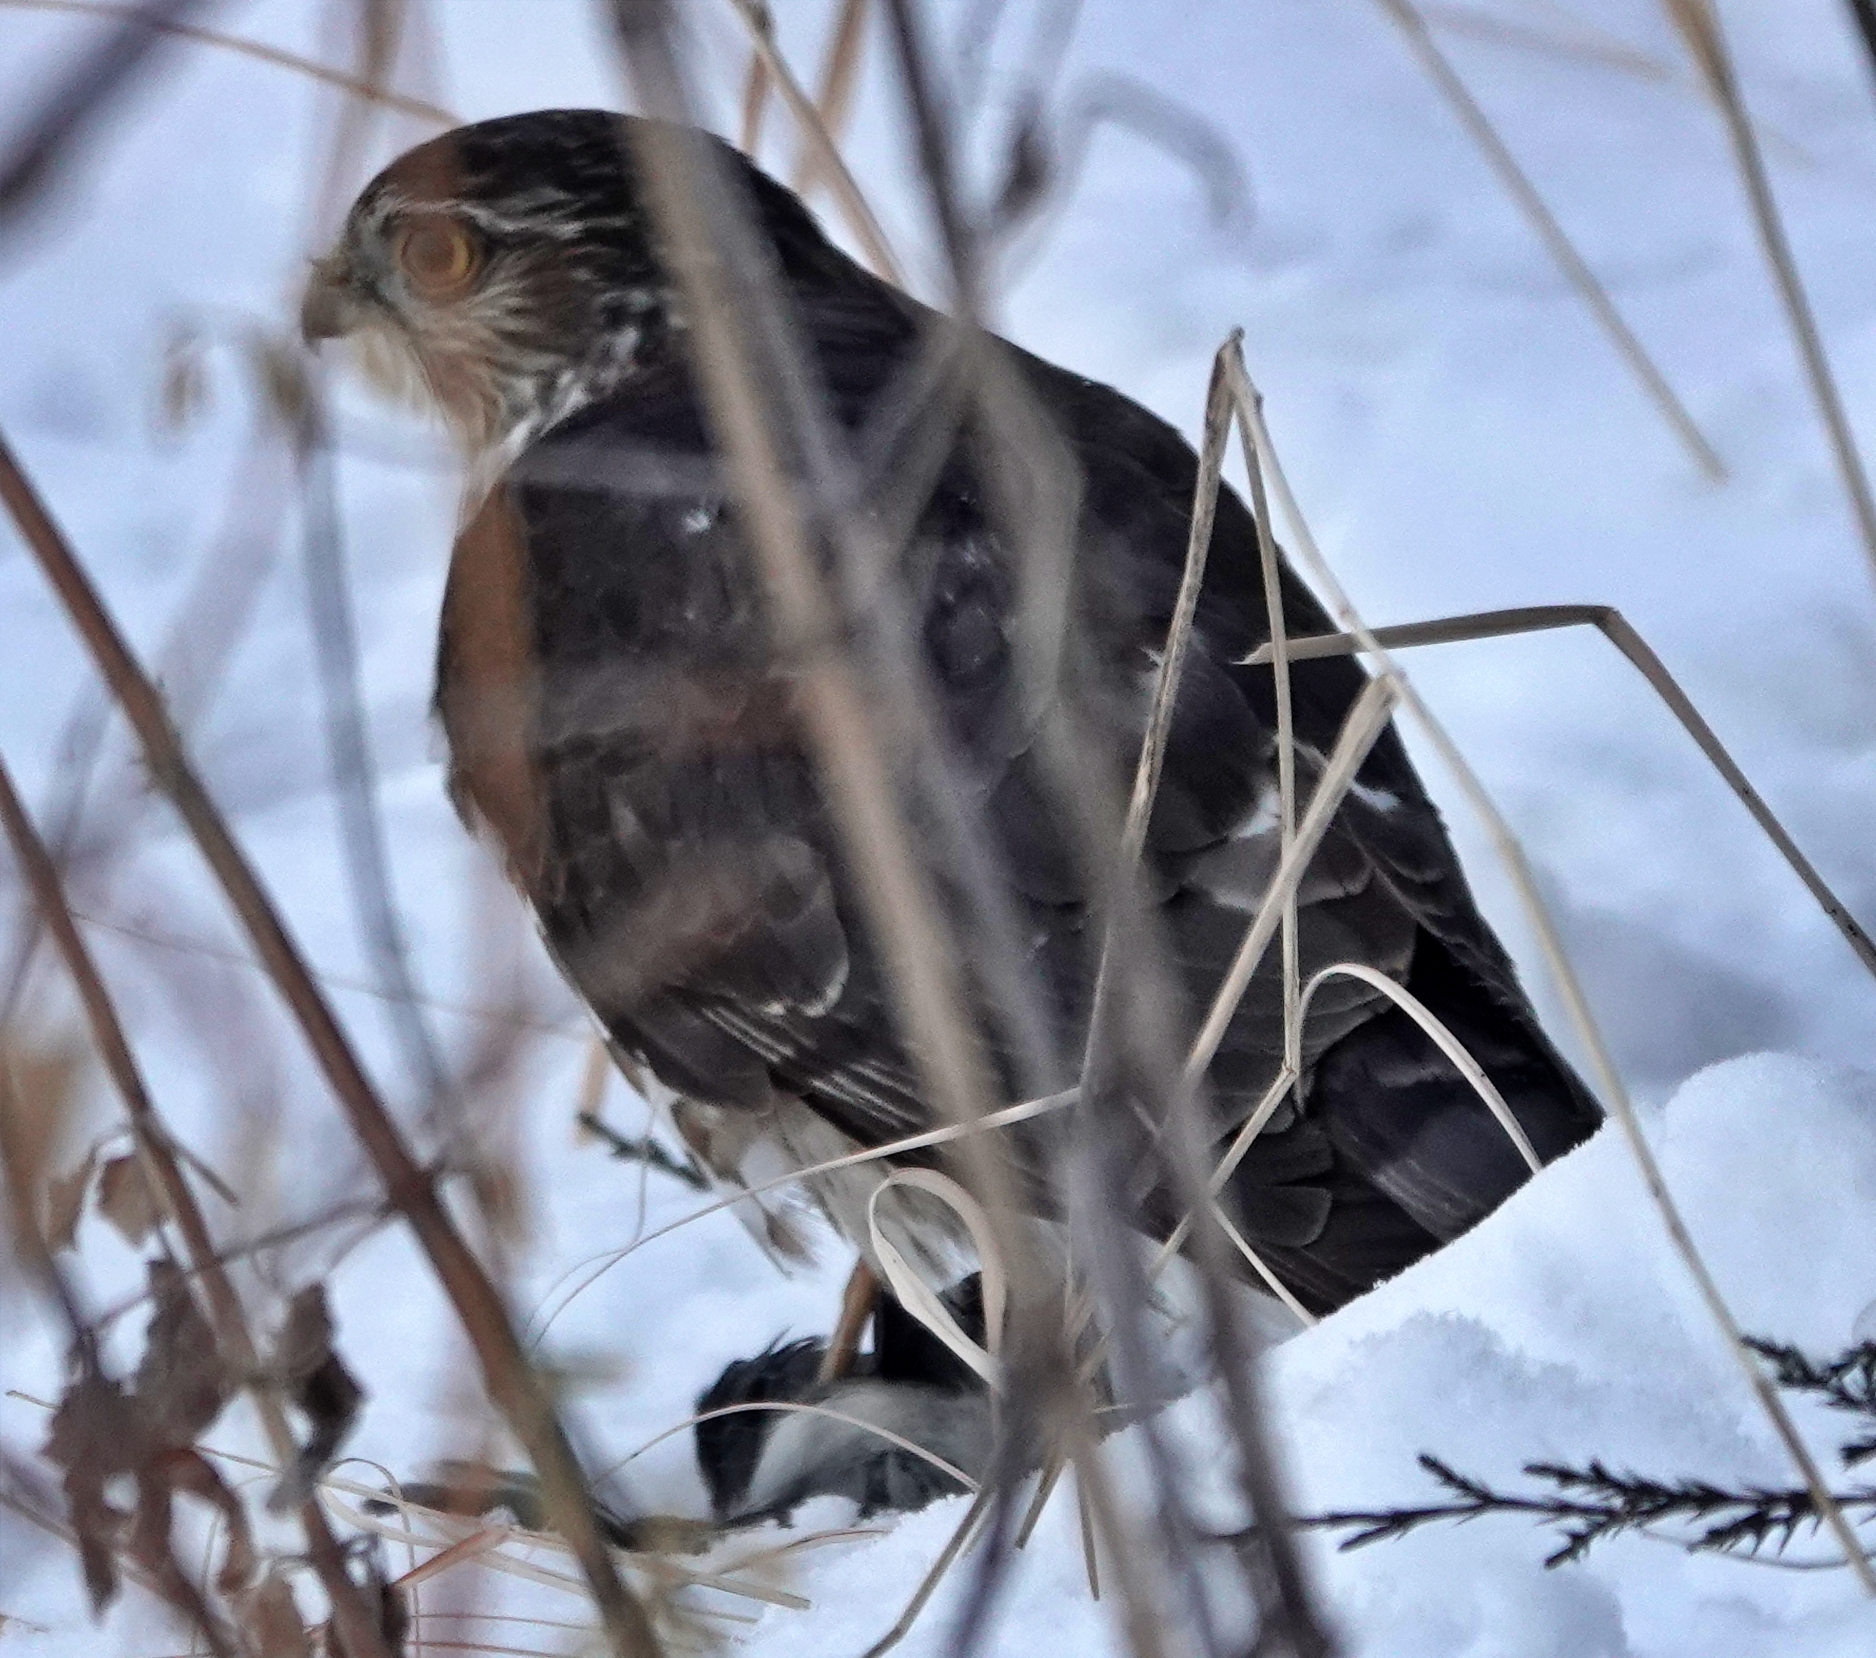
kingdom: Animalia
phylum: Chordata
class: Aves
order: Accipitriformes
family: Accipitridae
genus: Accipiter
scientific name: Accipiter striatus
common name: Sharp-shinned hawk
